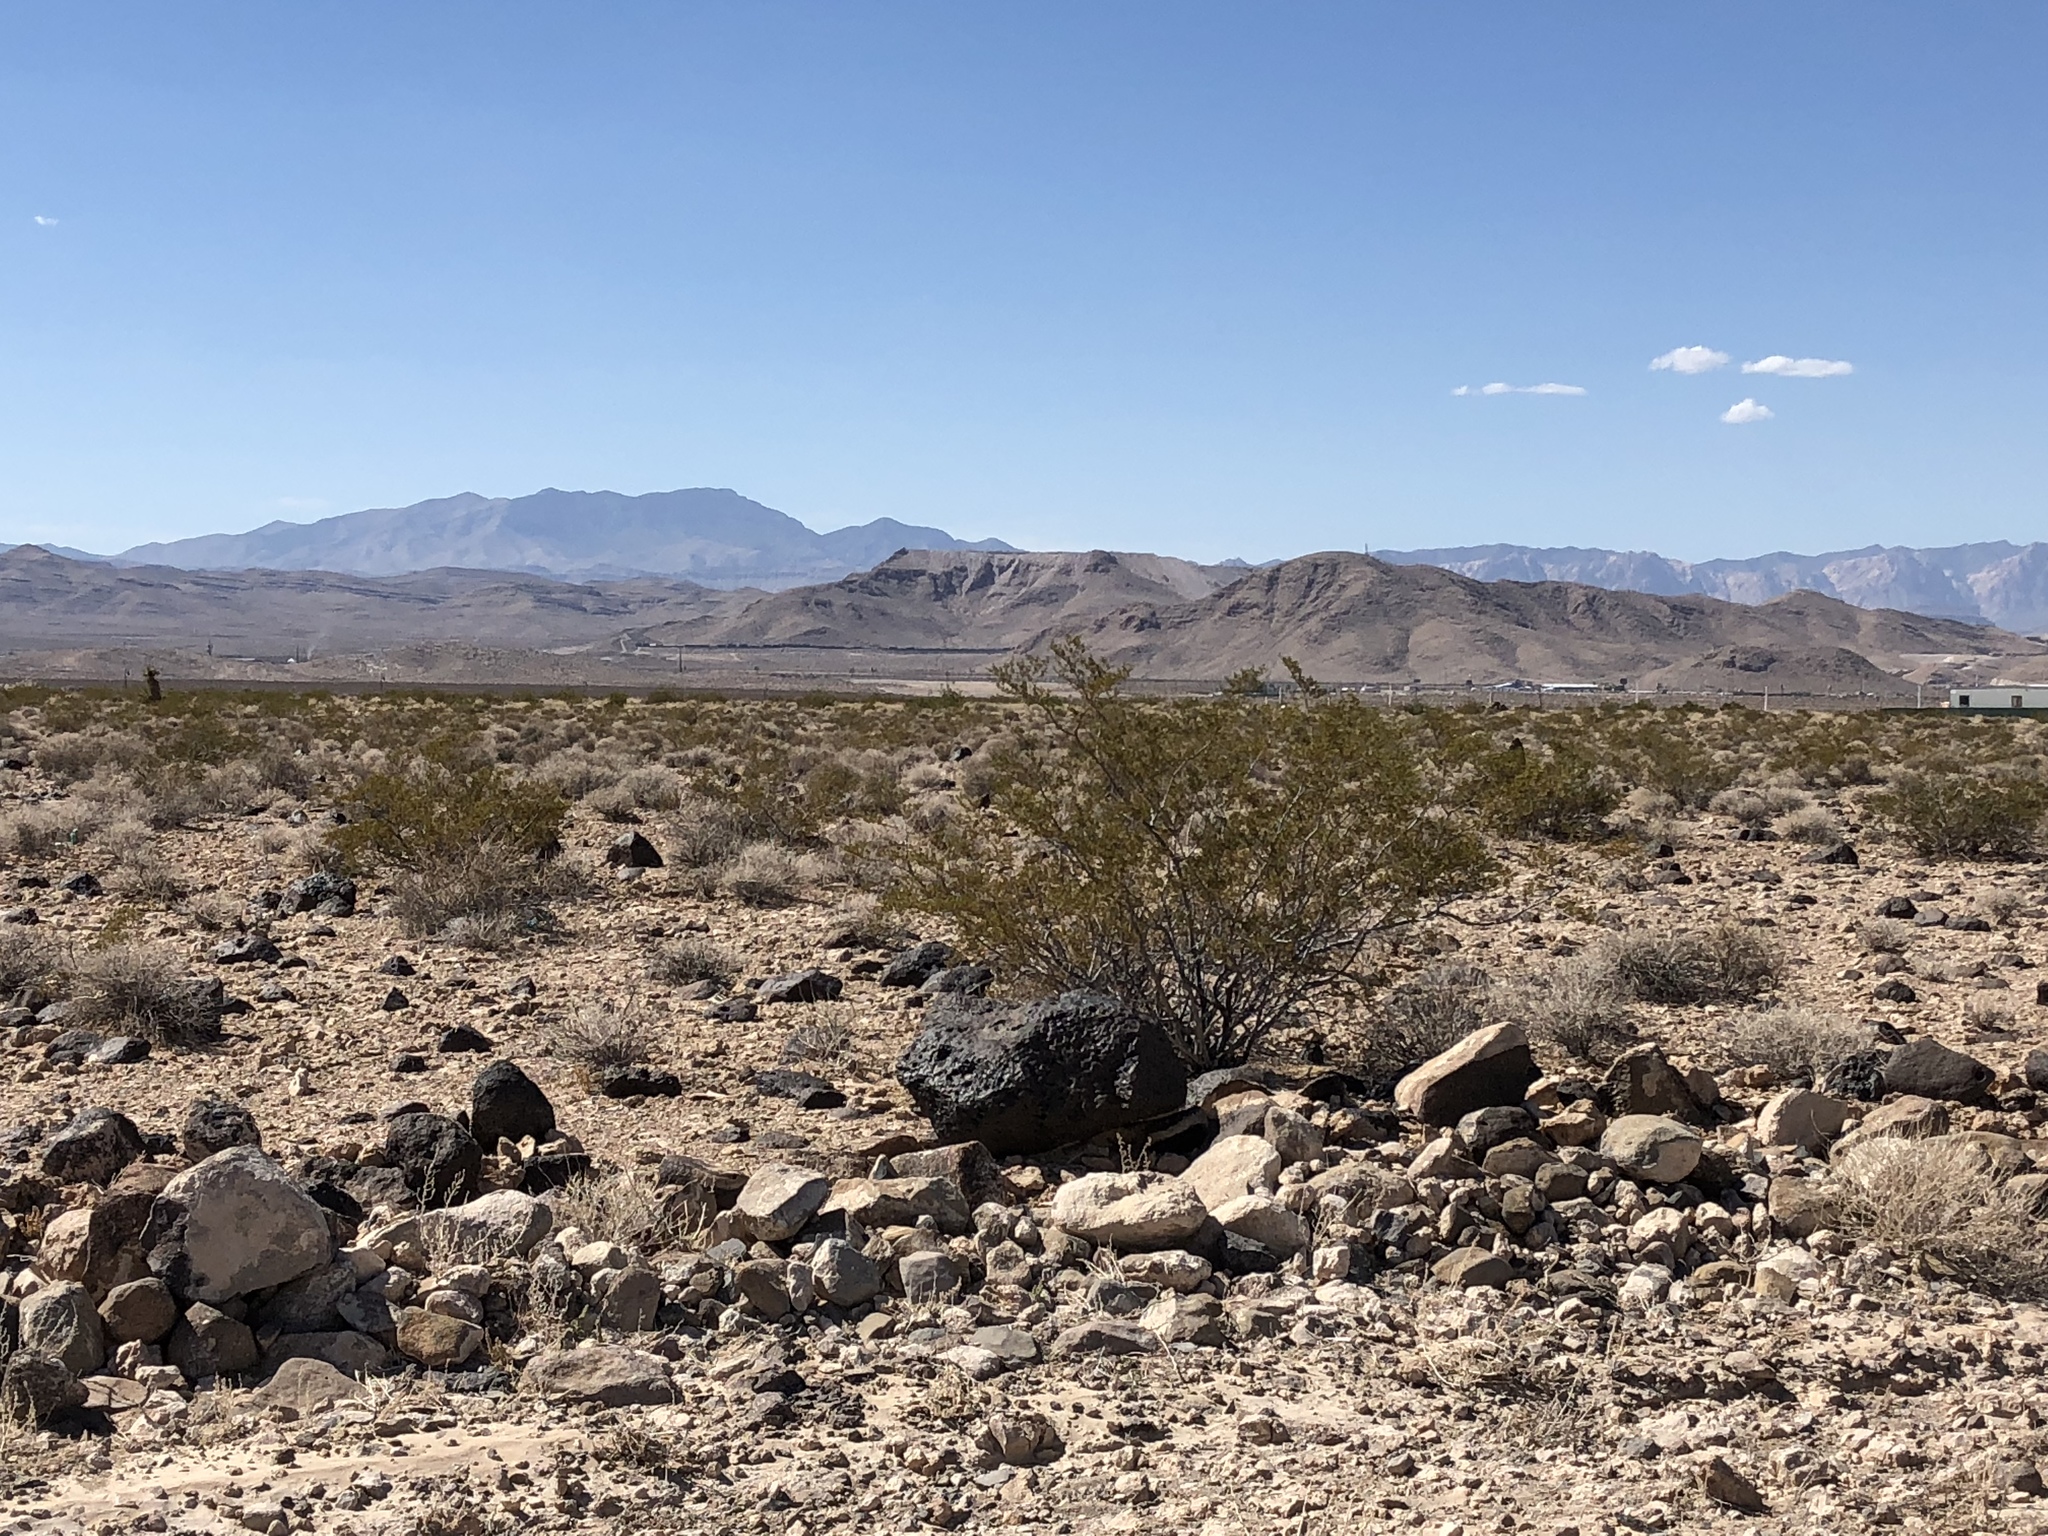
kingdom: Plantae
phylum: Tracheophyta
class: Magnoliopsida
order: Zygophyllales
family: Zygophyllaceae
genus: Larrea
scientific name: Larrea tridentata
